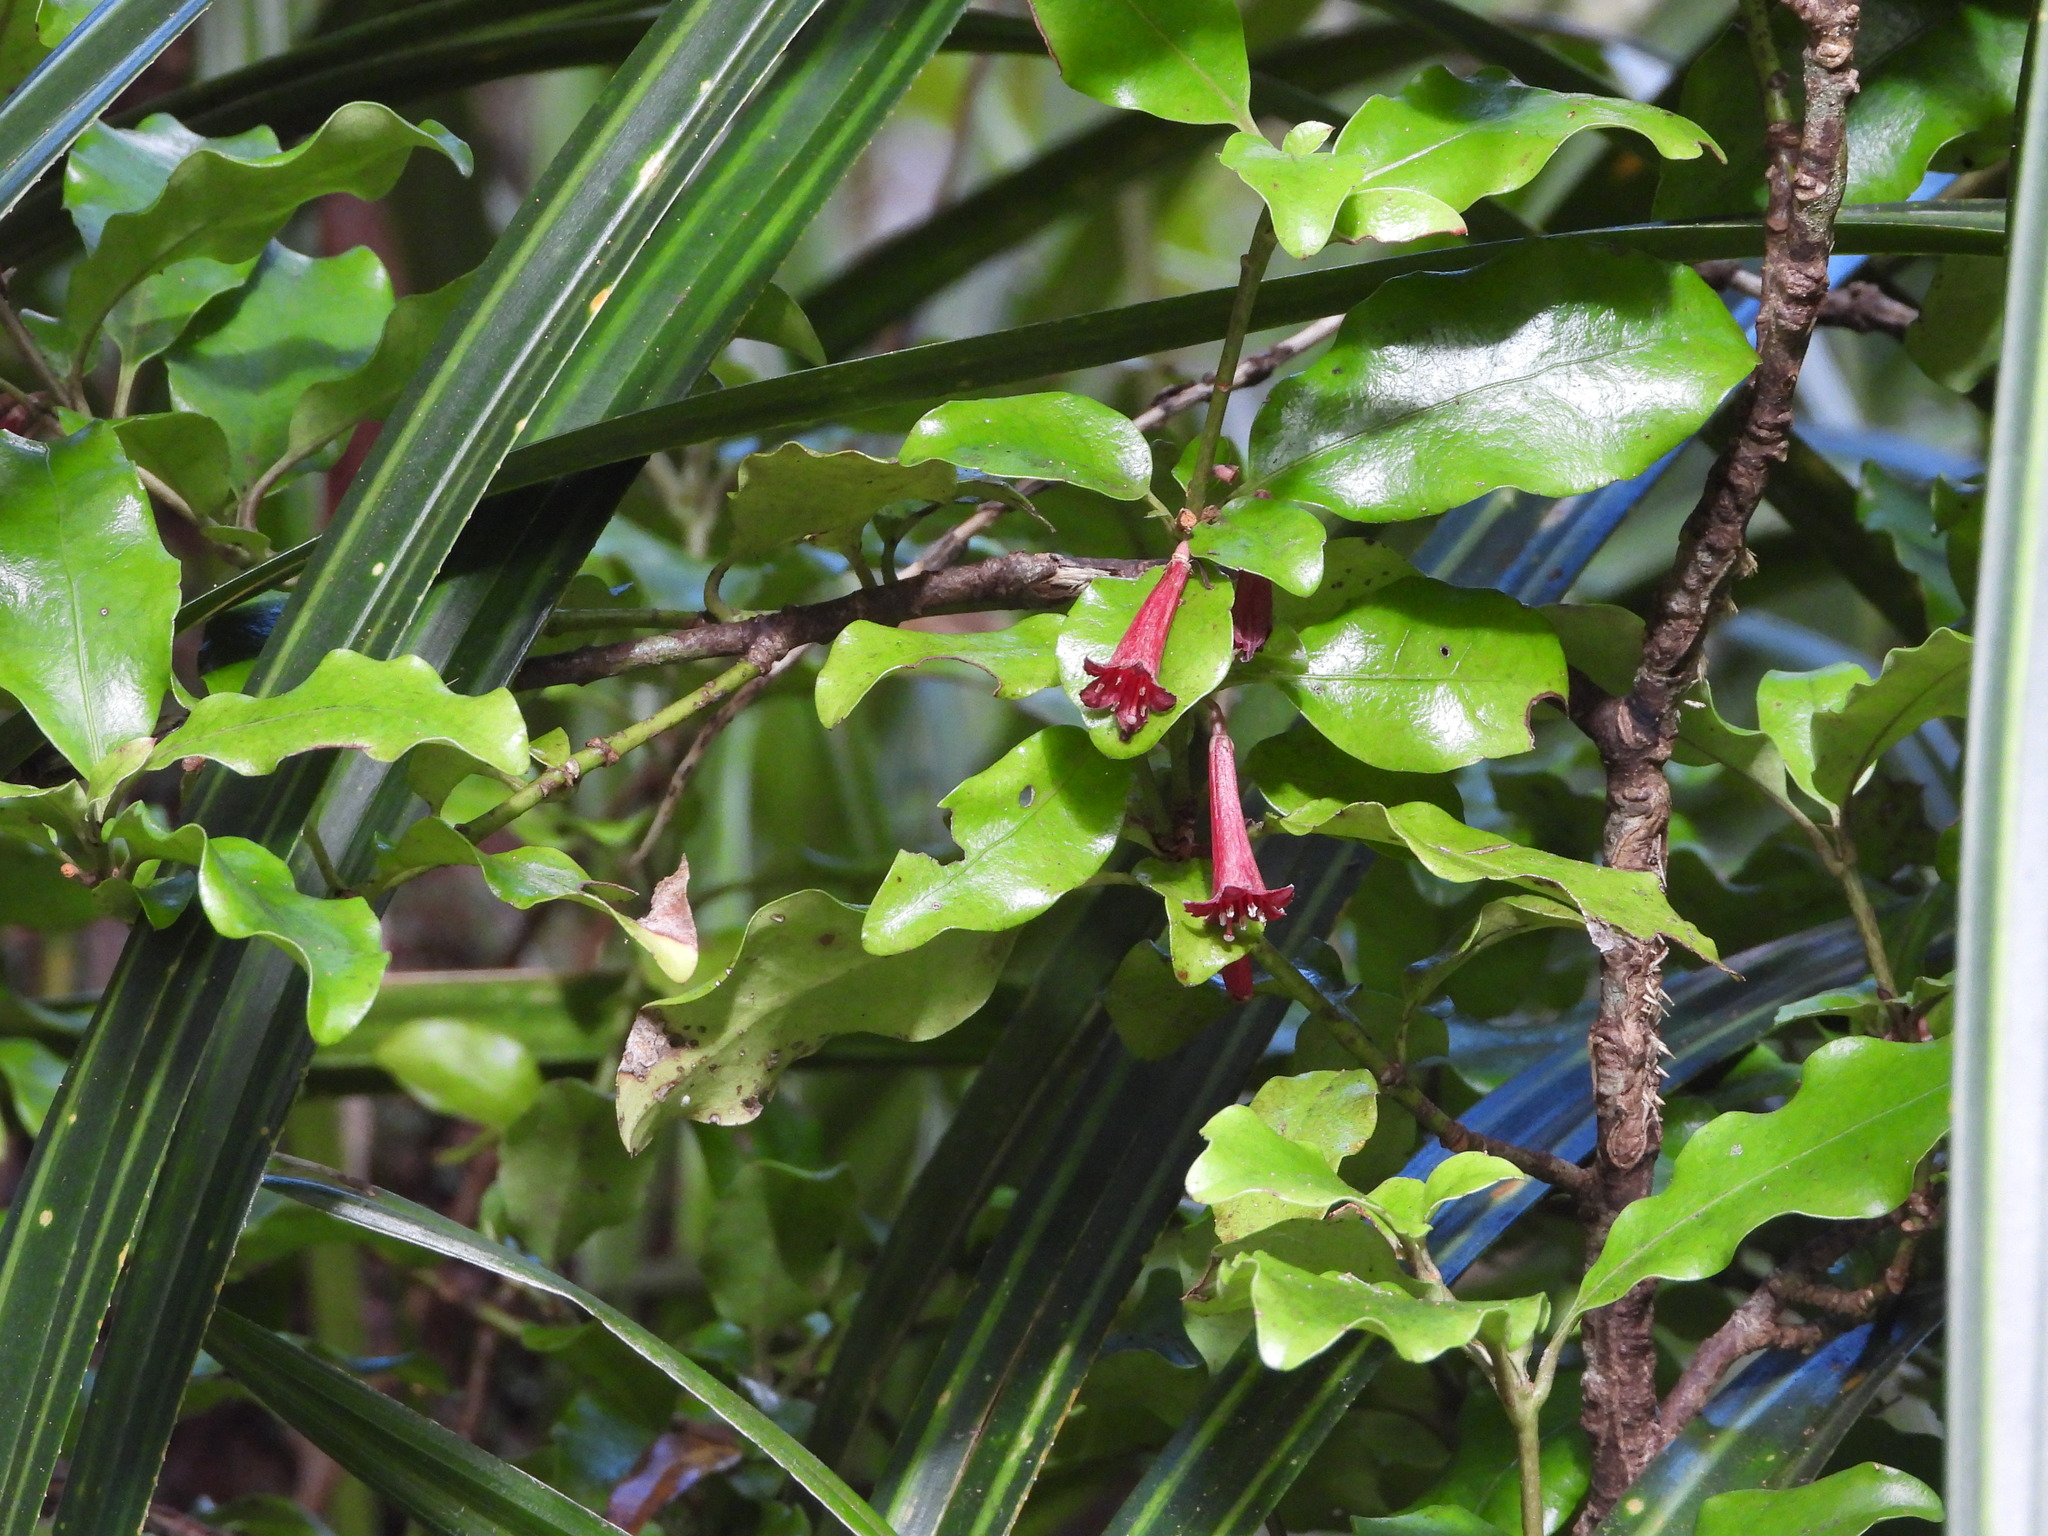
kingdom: Plantae
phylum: Tracheophyta
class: Magnoliopsida
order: Asterales
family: Alseuosmiaceae
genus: Alseuosmia
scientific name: Alseuosmia macrophylla
